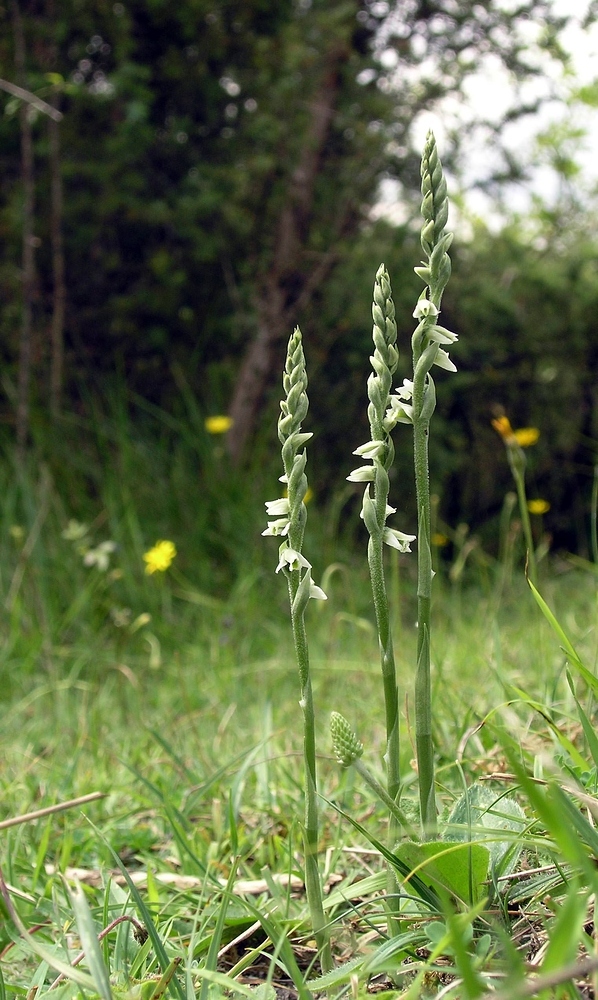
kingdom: Plantae
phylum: Tracheophyta
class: Liliopsida
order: Asparagales
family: Orchidaceae
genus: Spiranthes
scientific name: Spiranthes spiralis
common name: Autumn lady's-tresses
